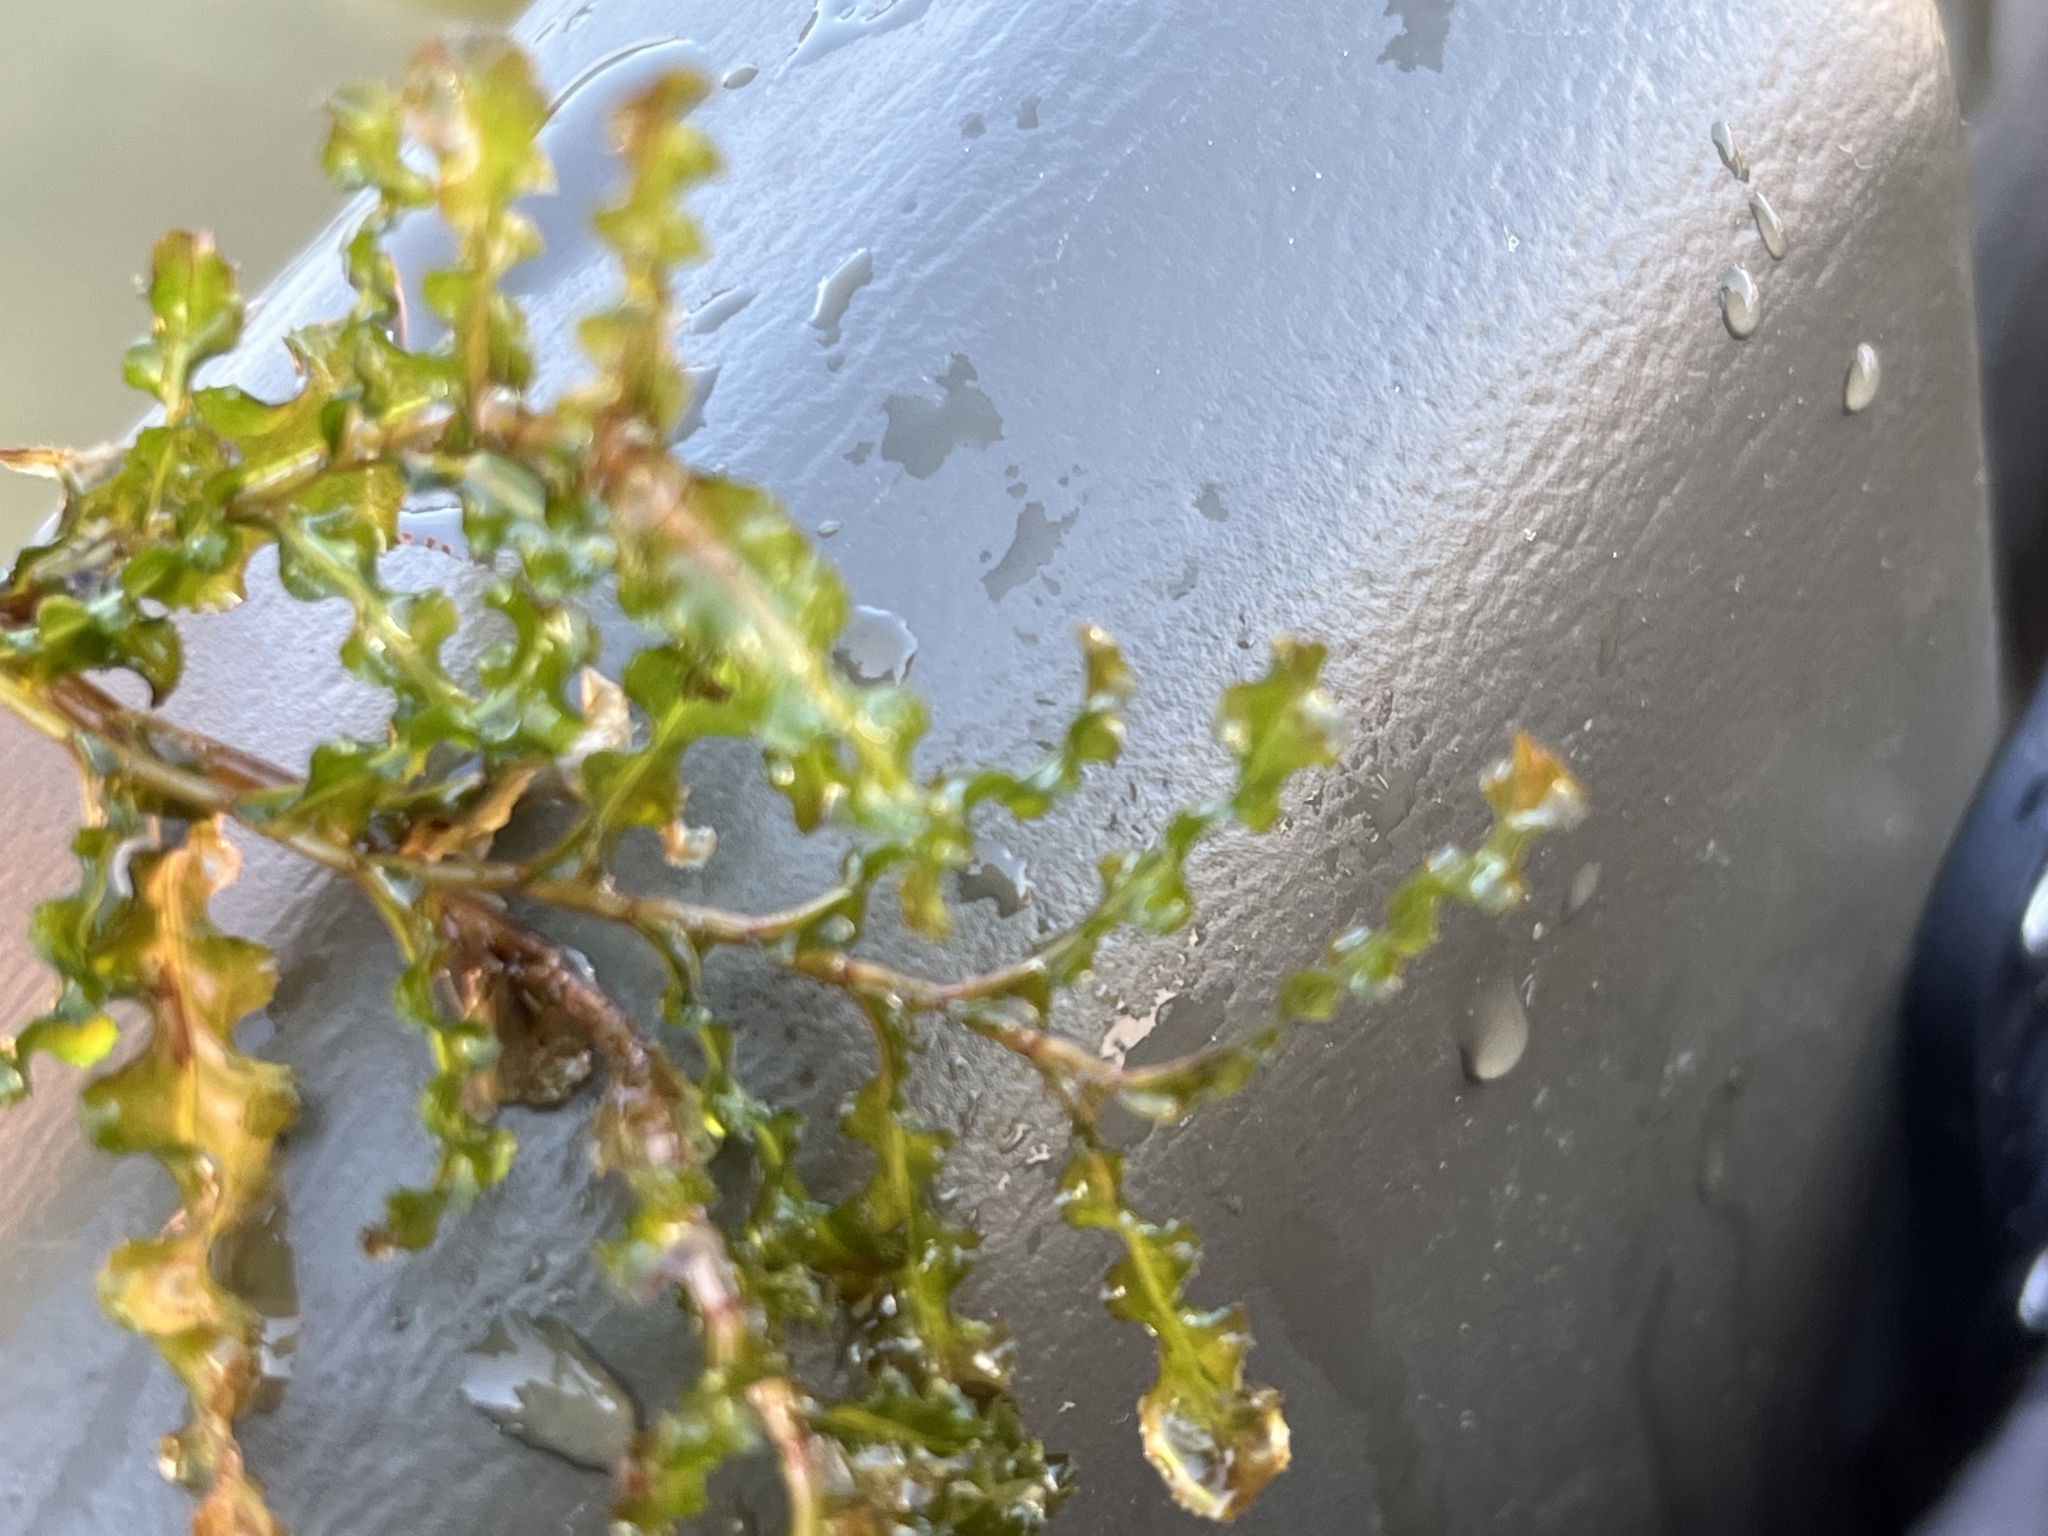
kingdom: Plantae
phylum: Tracheophyta
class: Liliopsida
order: Alismatales
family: Potamogetonaceae
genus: Potamogeton
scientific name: Potamogeton crispus
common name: Curled pondweed
